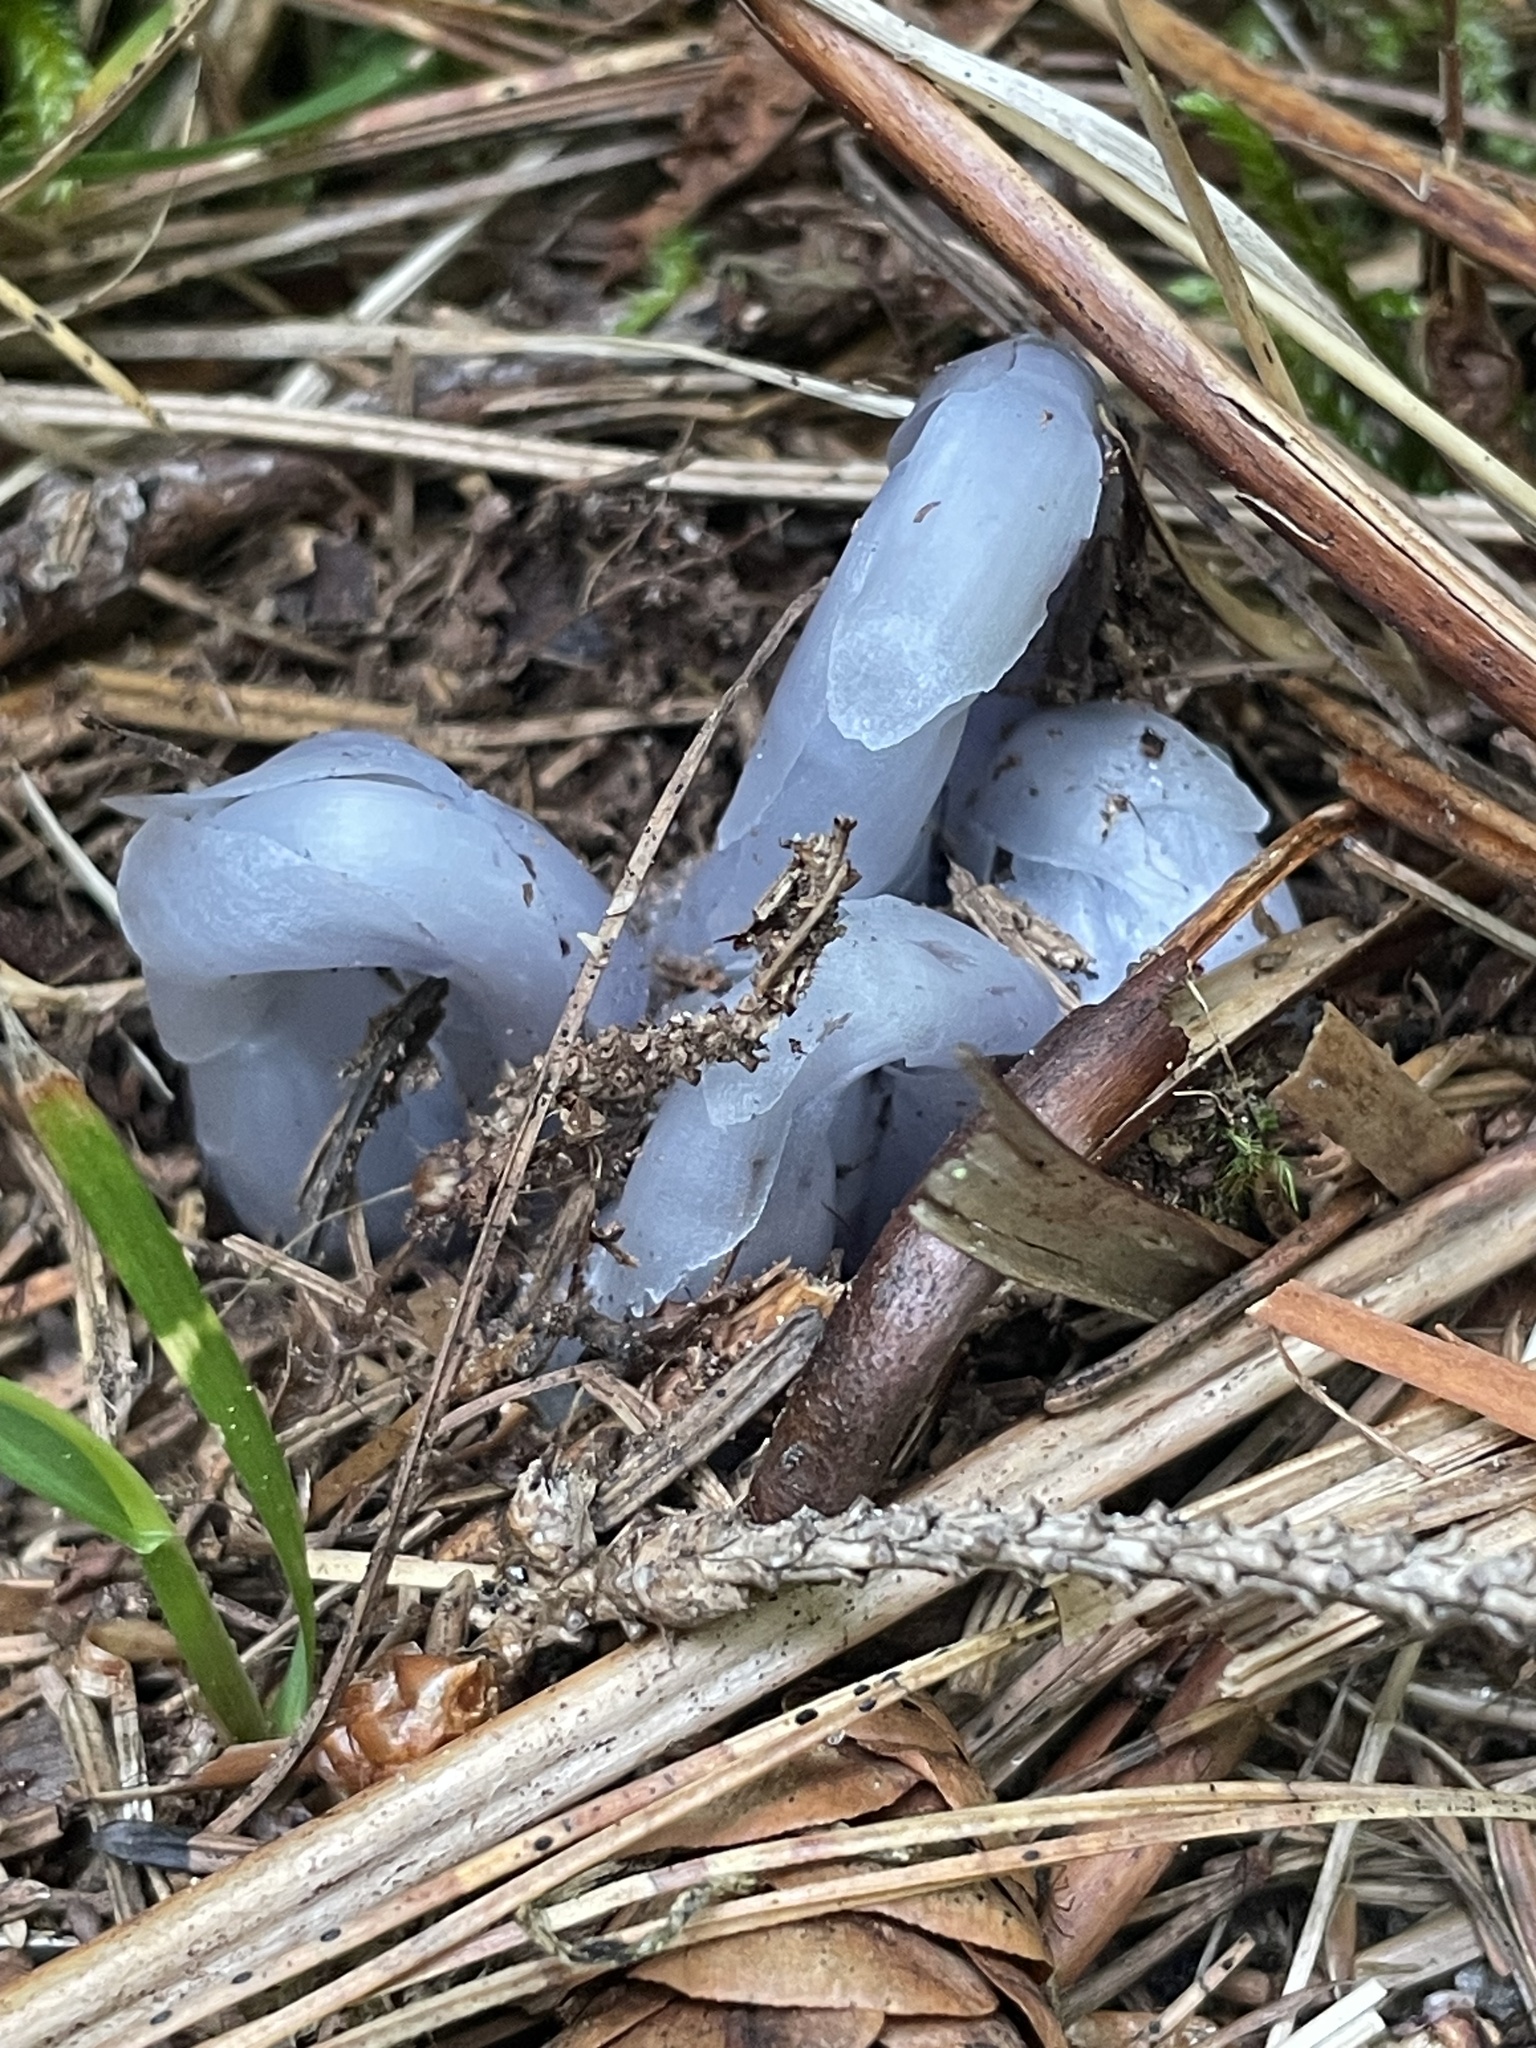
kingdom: Plantae
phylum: Tracheophyta
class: Magnoliopsida
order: Ericales
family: Ericaceae
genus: Monotropa
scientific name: Monotropa uniflora
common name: Convulsion root
